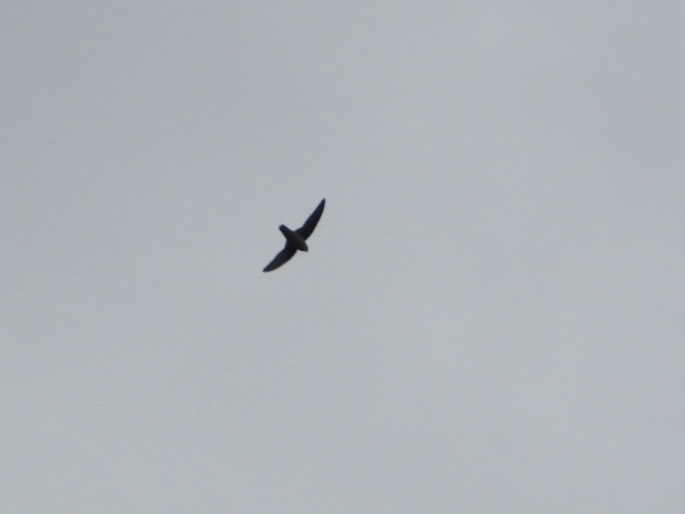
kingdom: Animalia
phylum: Chordata
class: Aves
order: Apodiformes
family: Apodidae
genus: Chaetura
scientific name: Chaetura vauxi
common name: Vaux's swift
